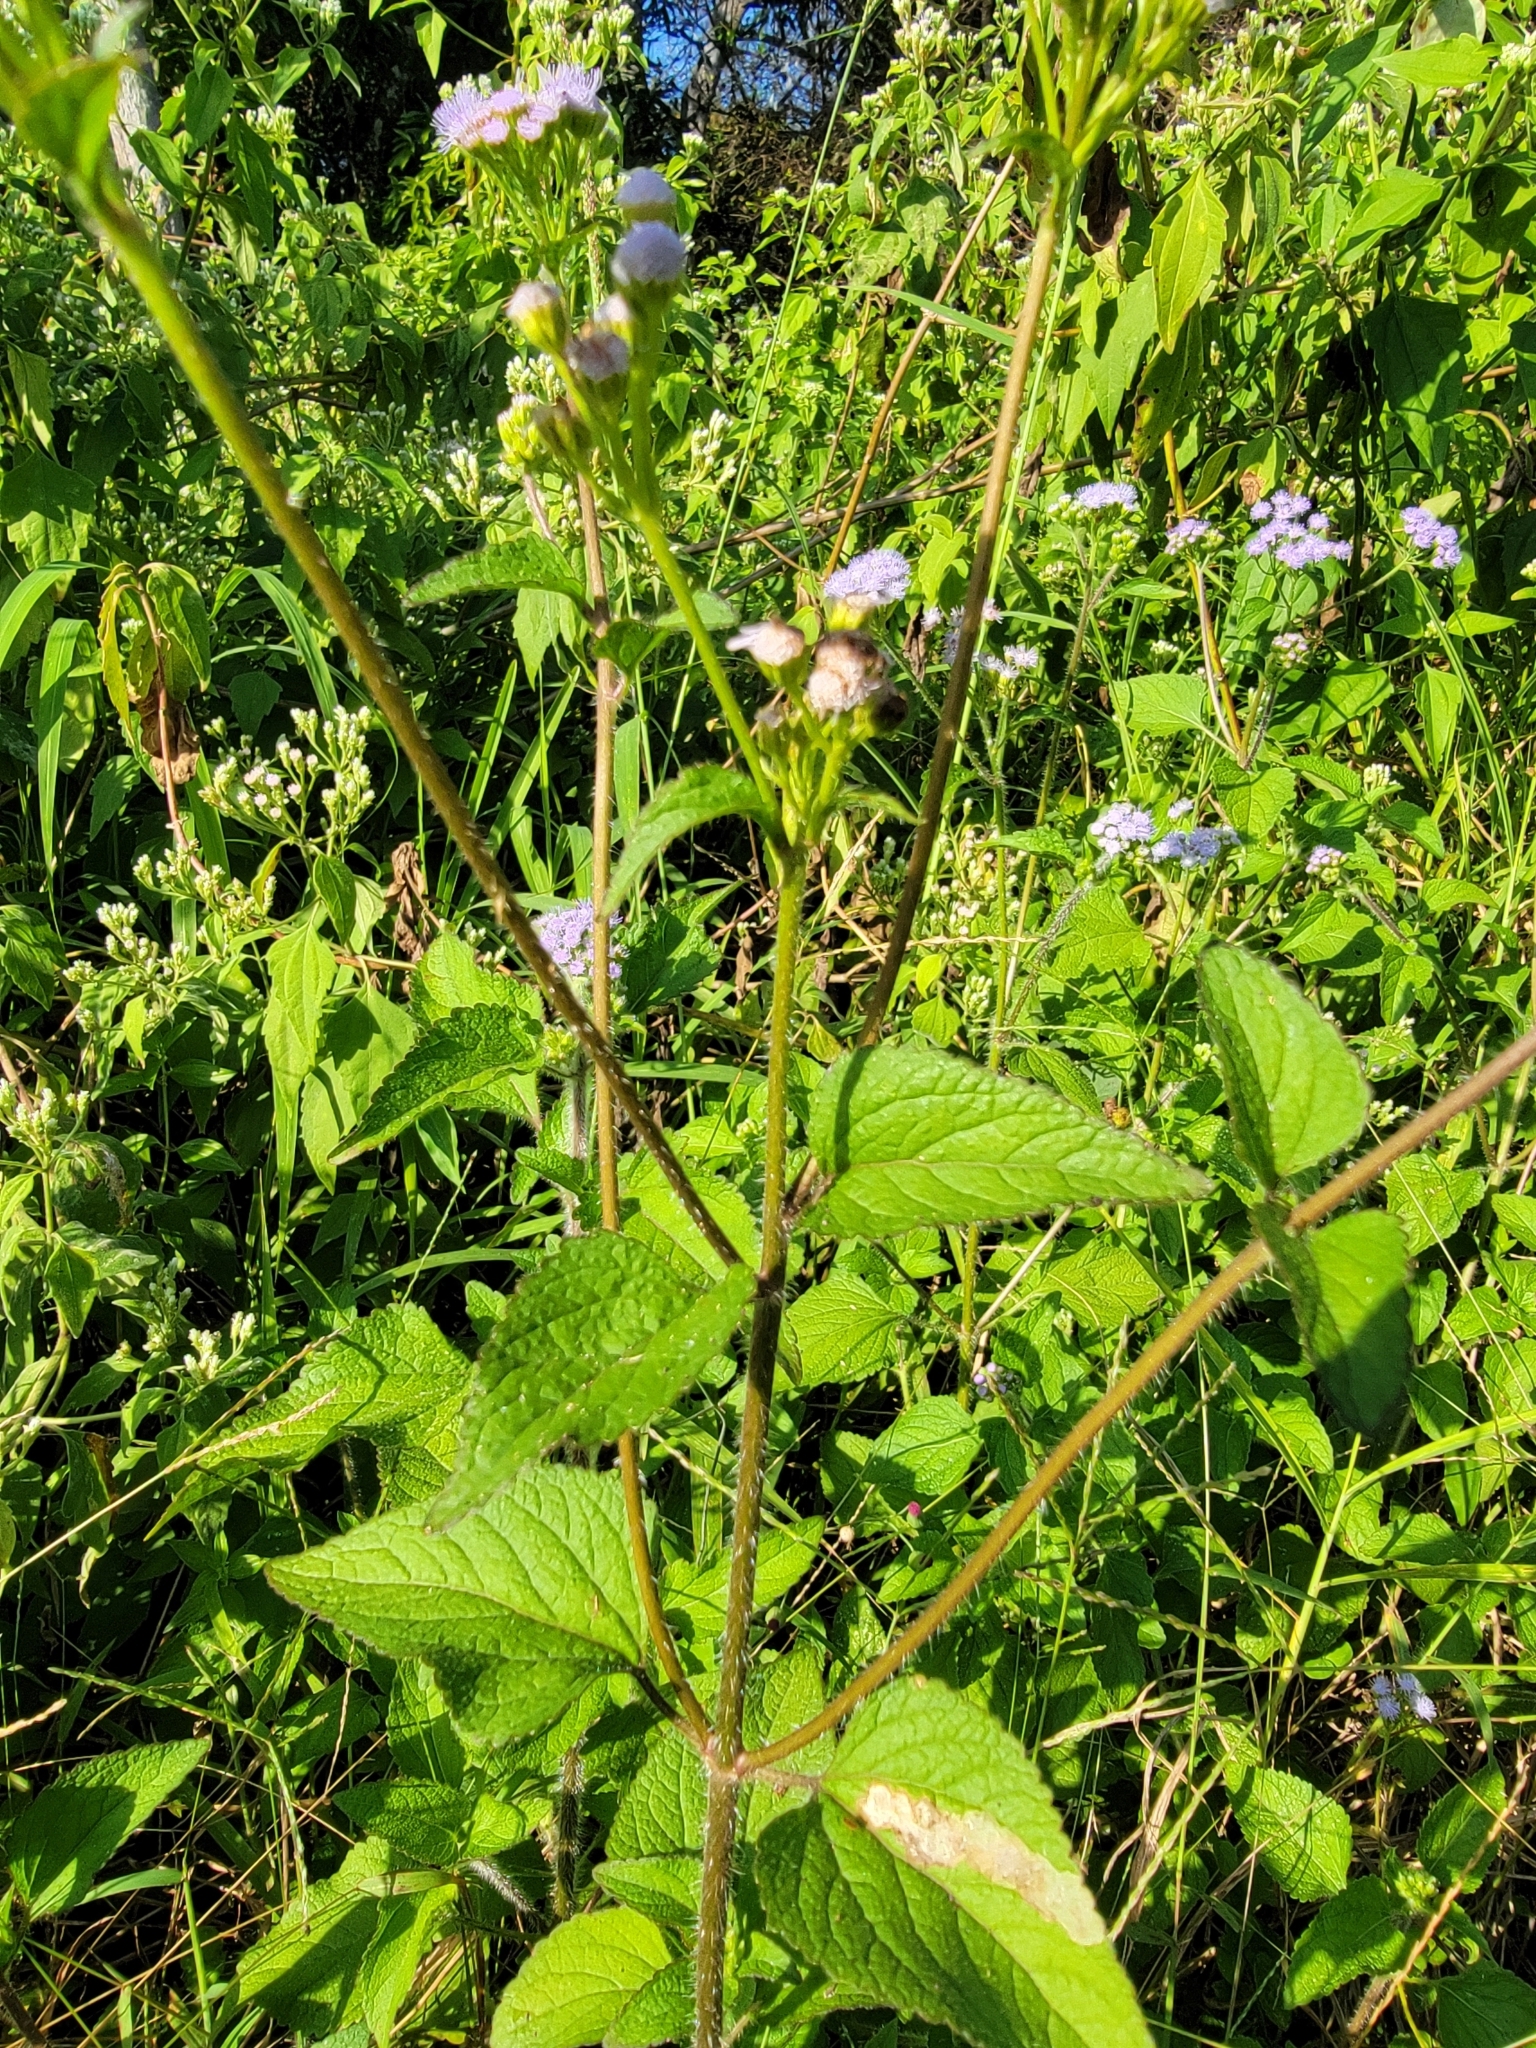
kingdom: Plantae
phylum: Tracheophyta
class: Magnoliopsida
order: Asterales
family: Asteraceae
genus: Ageratum
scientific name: Ageratum houstonianum
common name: Bluemink
